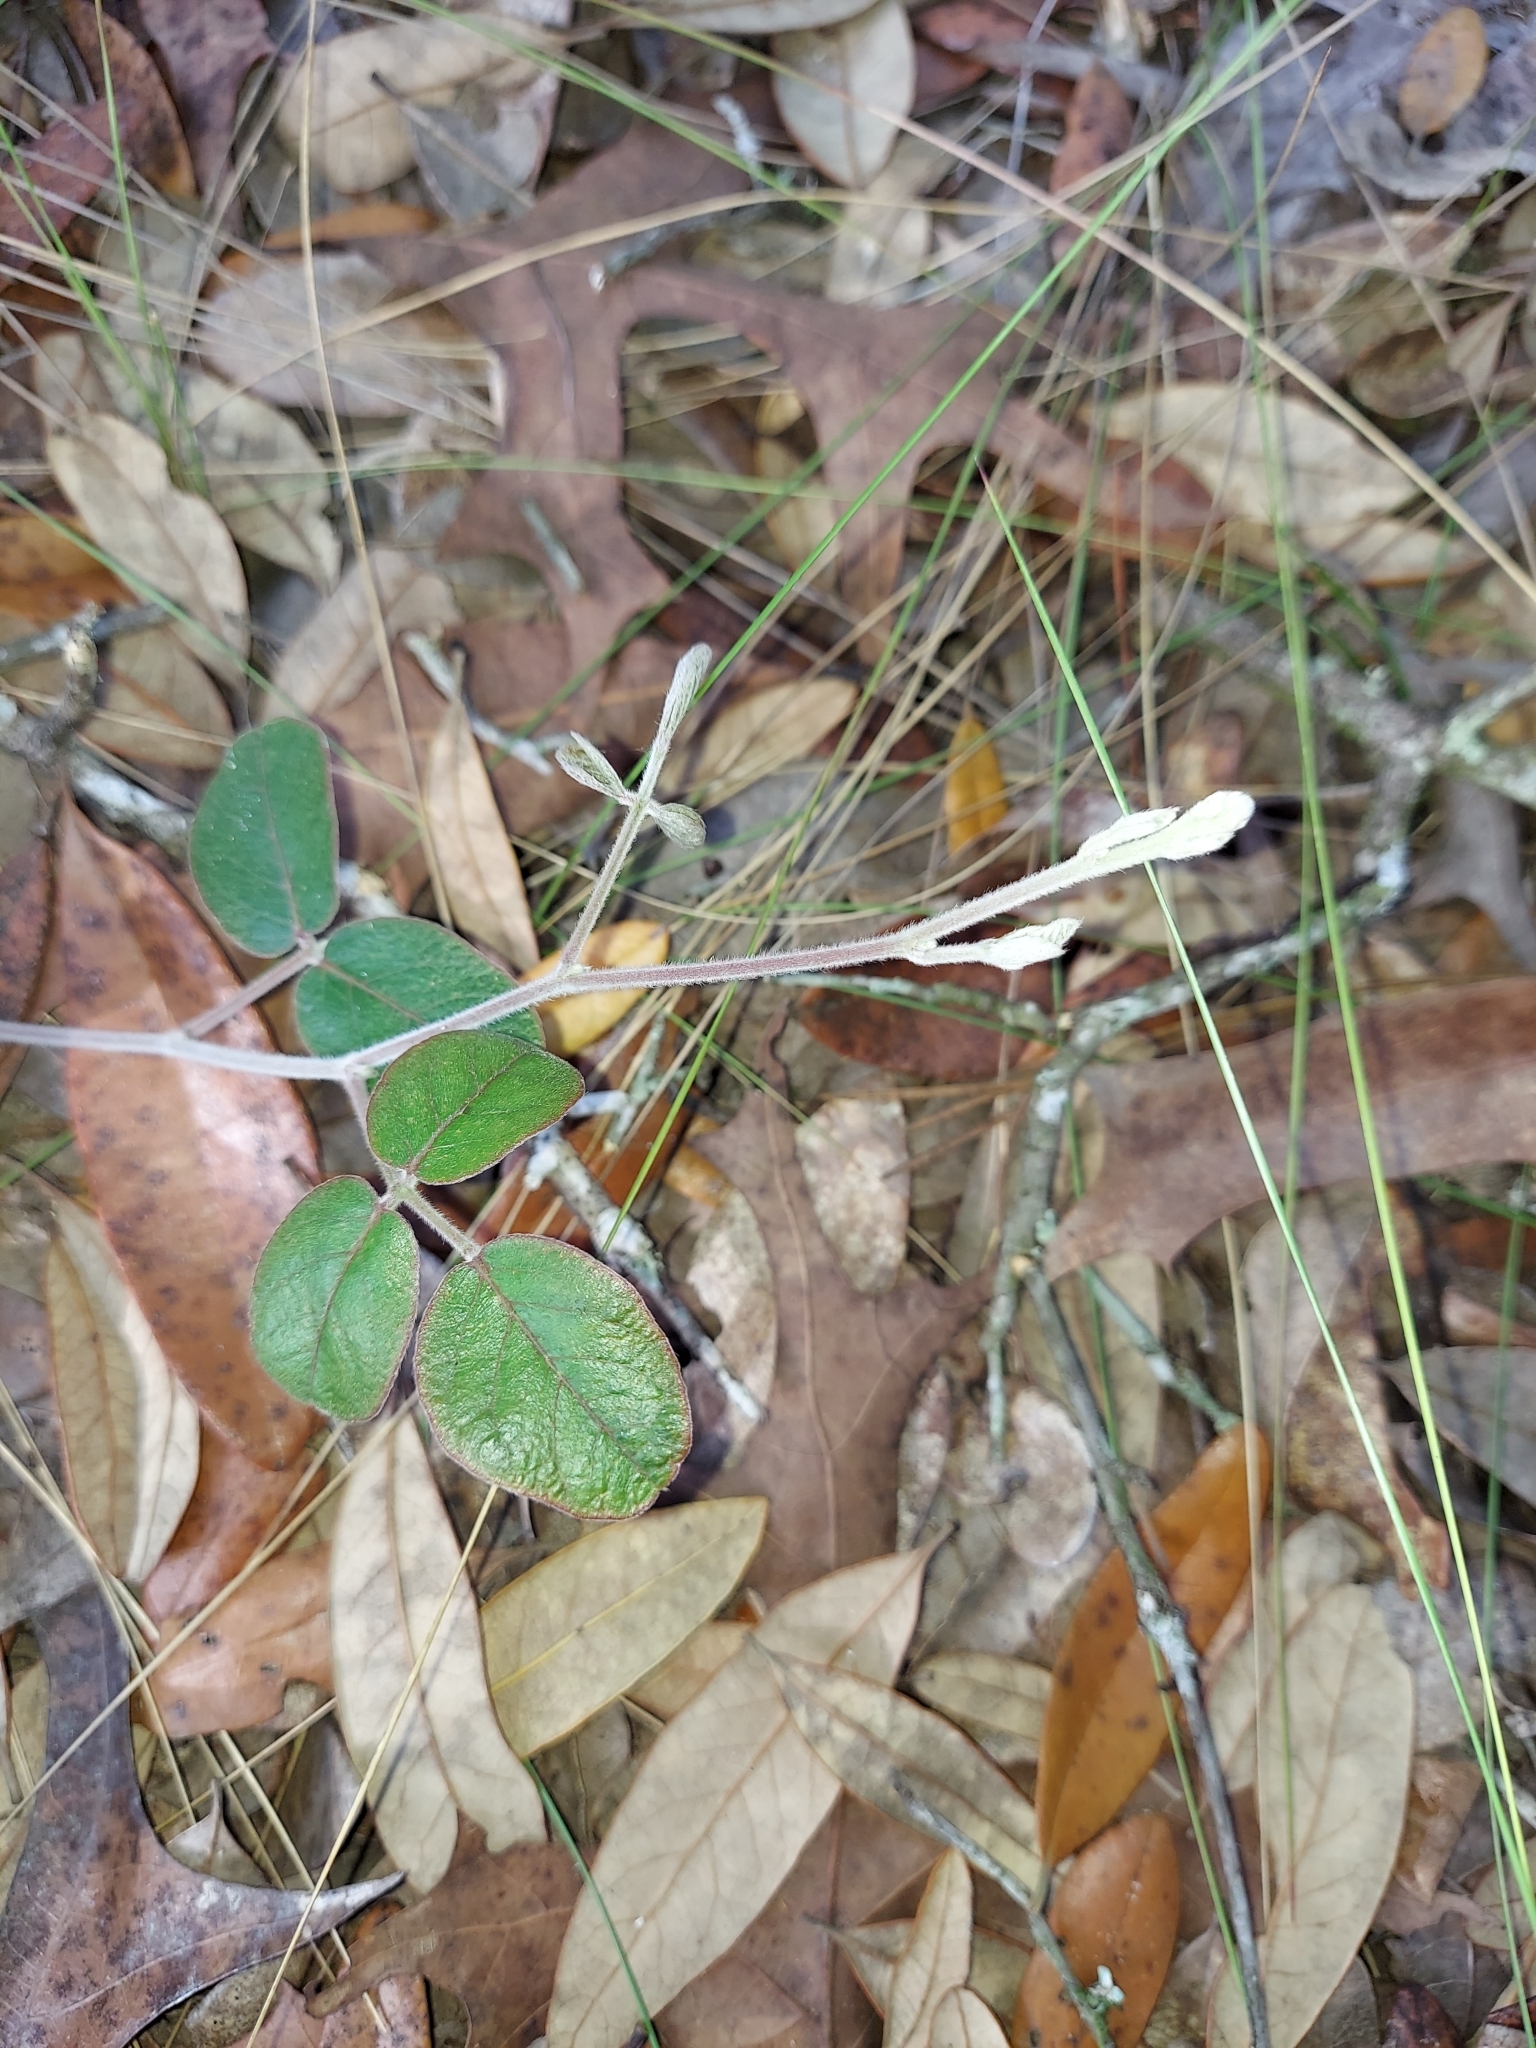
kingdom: Plantae
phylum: Tracheophyta
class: Magnoliopsida
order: Fabales
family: Fabaceae
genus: Galactia
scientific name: Galactia floridana
